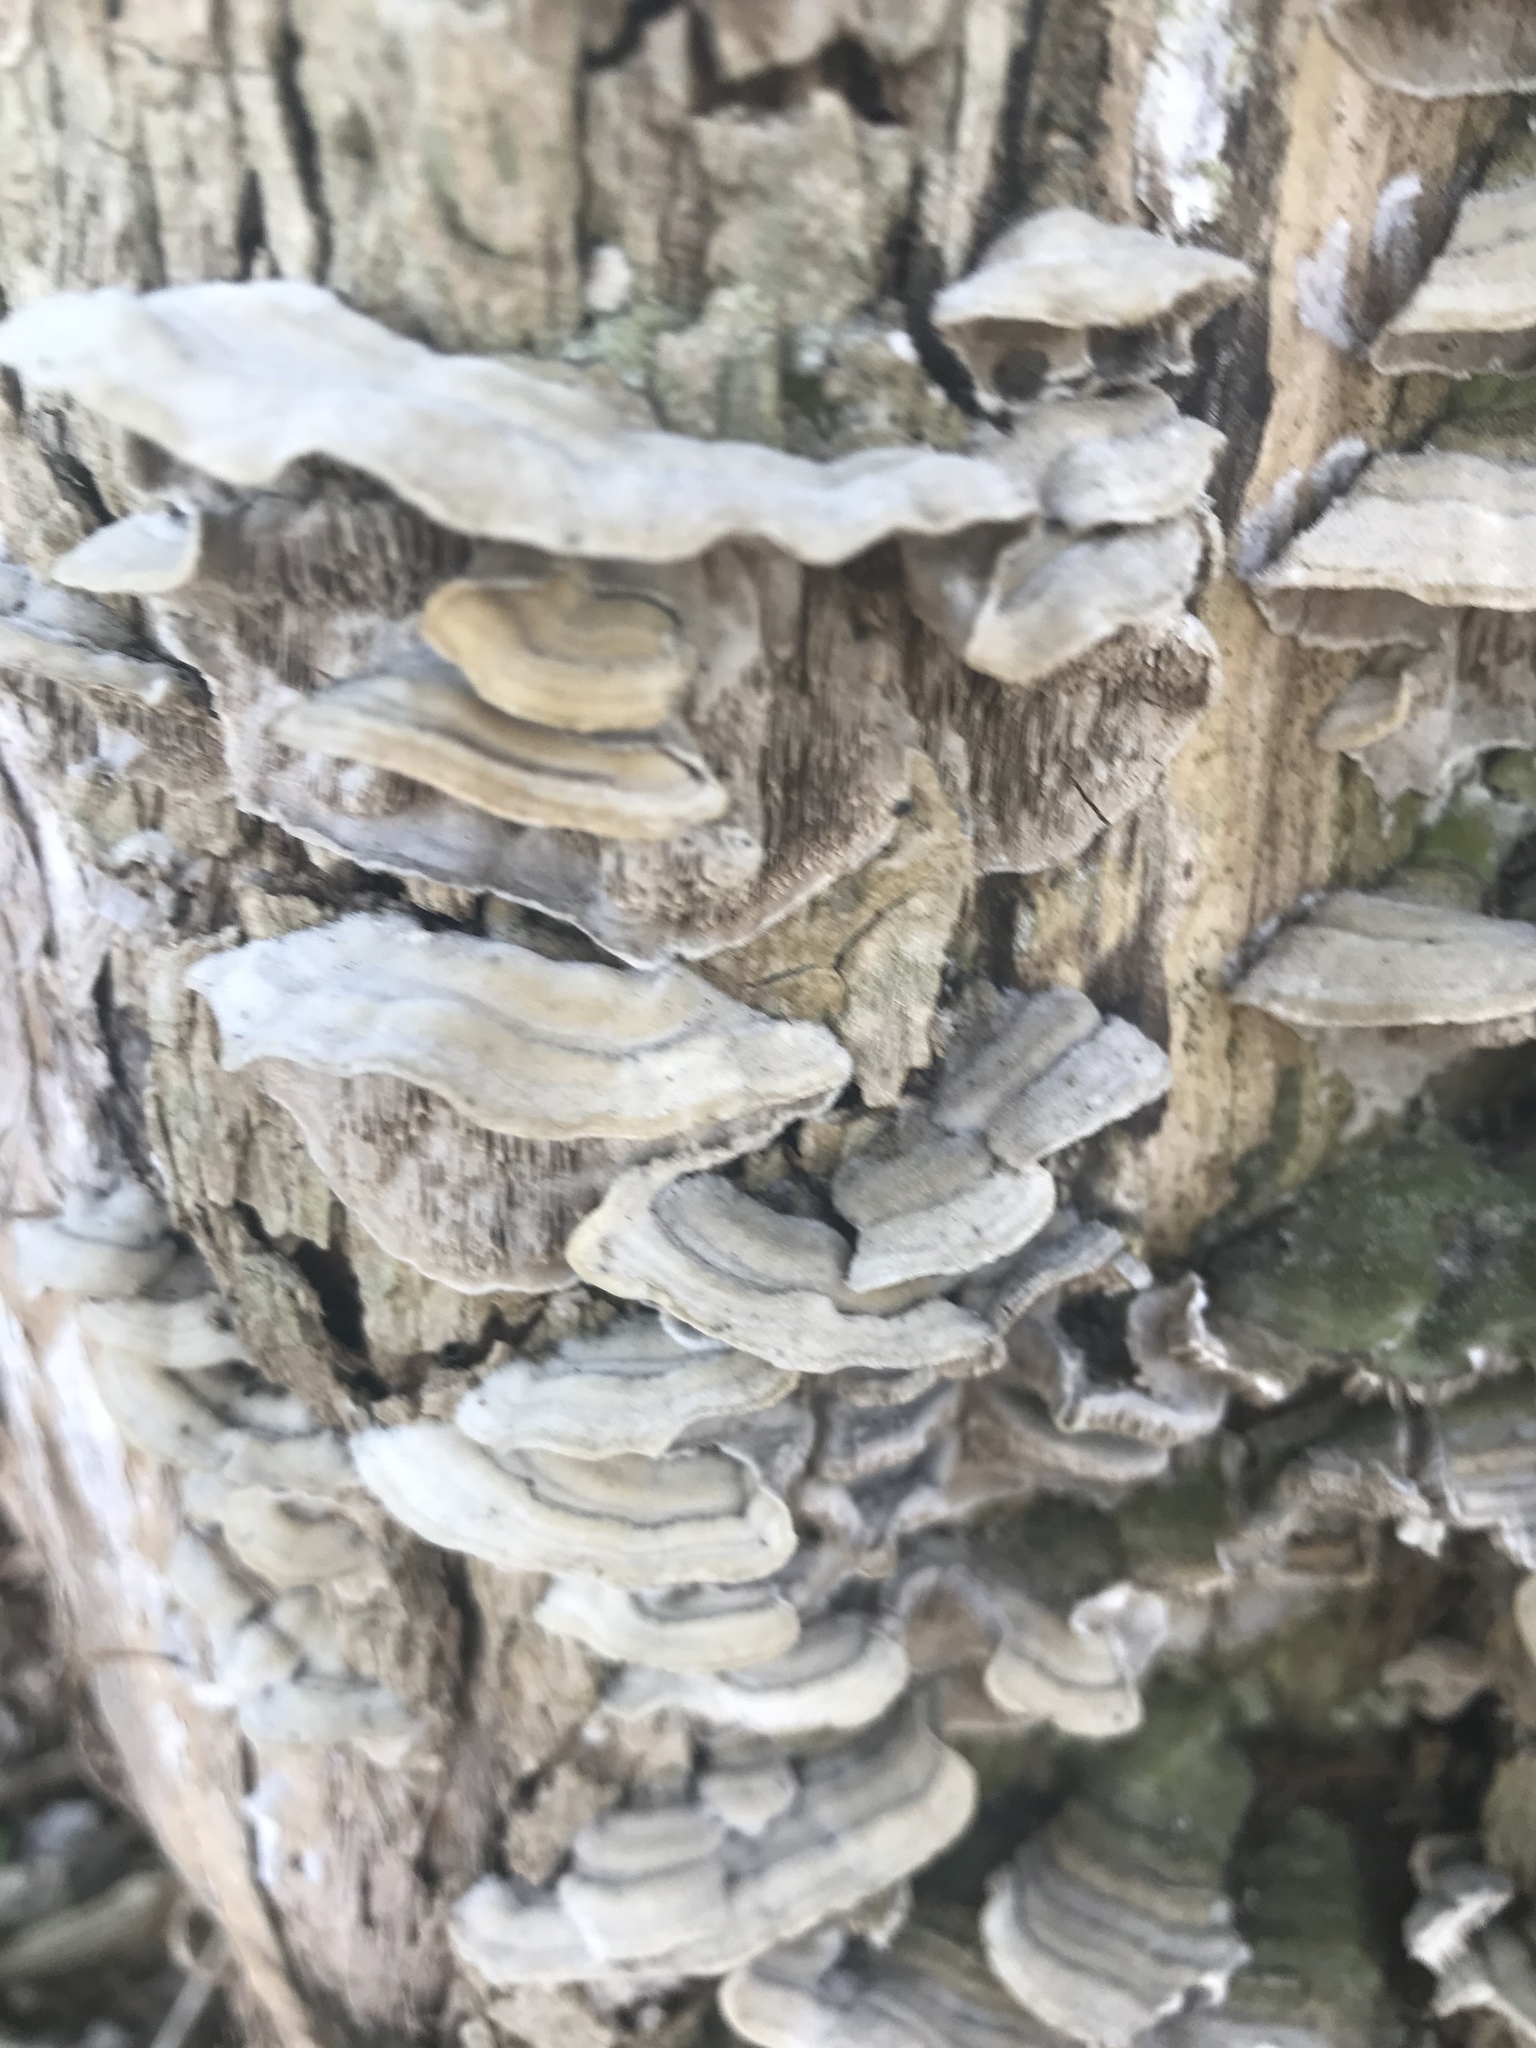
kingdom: Fungi
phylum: Basidiomycota
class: Agaricomycetes
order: Polyporales
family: Cerrenaceae
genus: Cerrena
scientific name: Cerrena unicolor
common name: Mossy maze polypore
